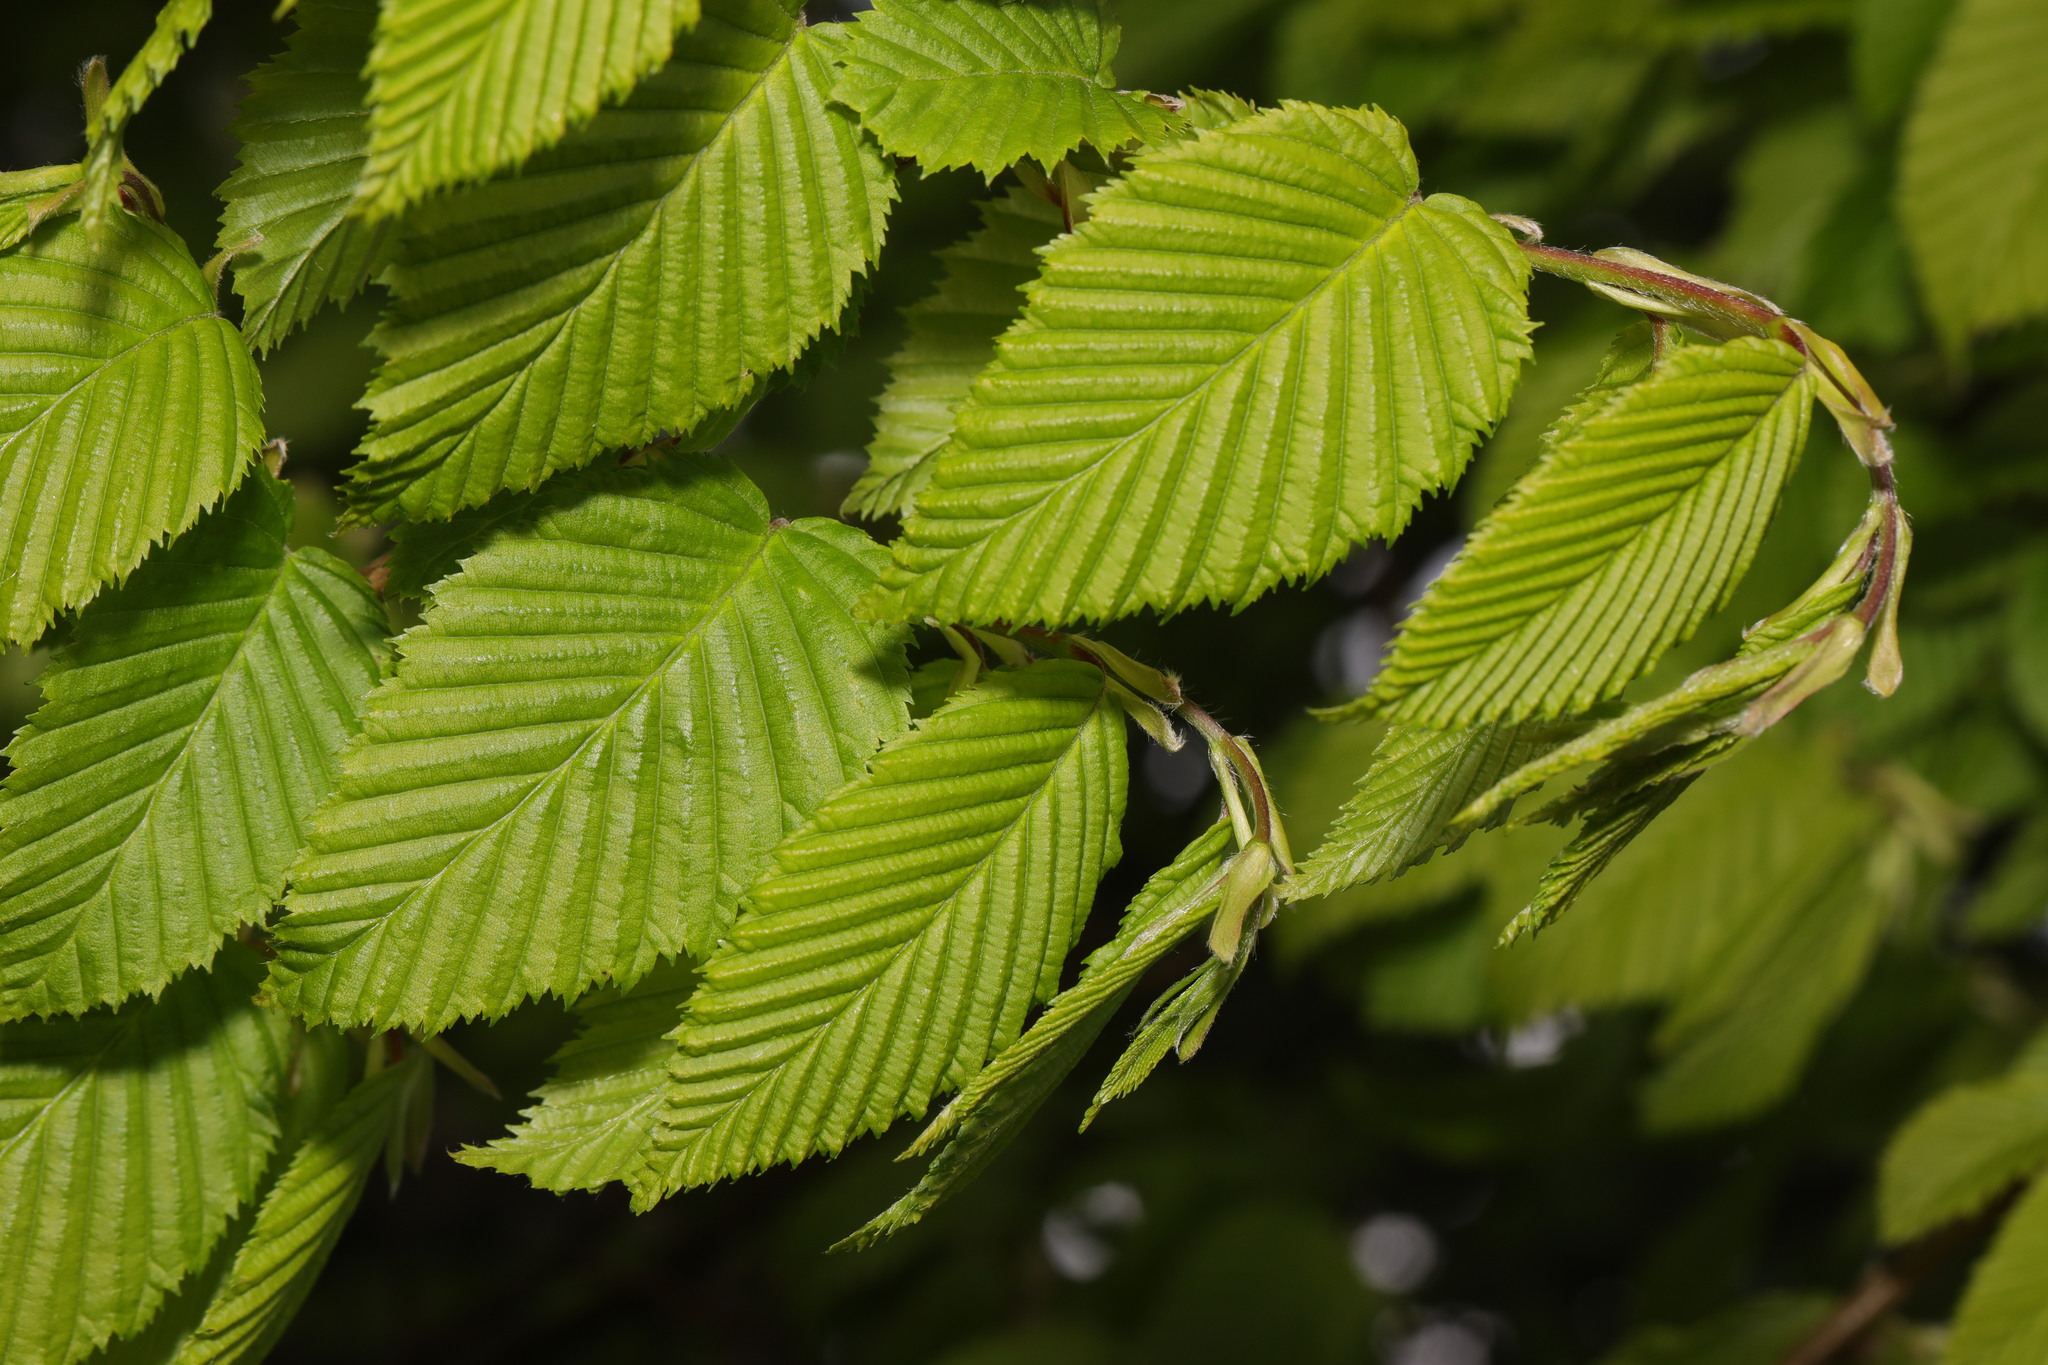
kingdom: Plantae
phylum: Tracheophyta
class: Magnoliopsida
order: Fagales
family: Betulaceae
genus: Carpinus
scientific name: Carpinus betulus
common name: Hornbeam
